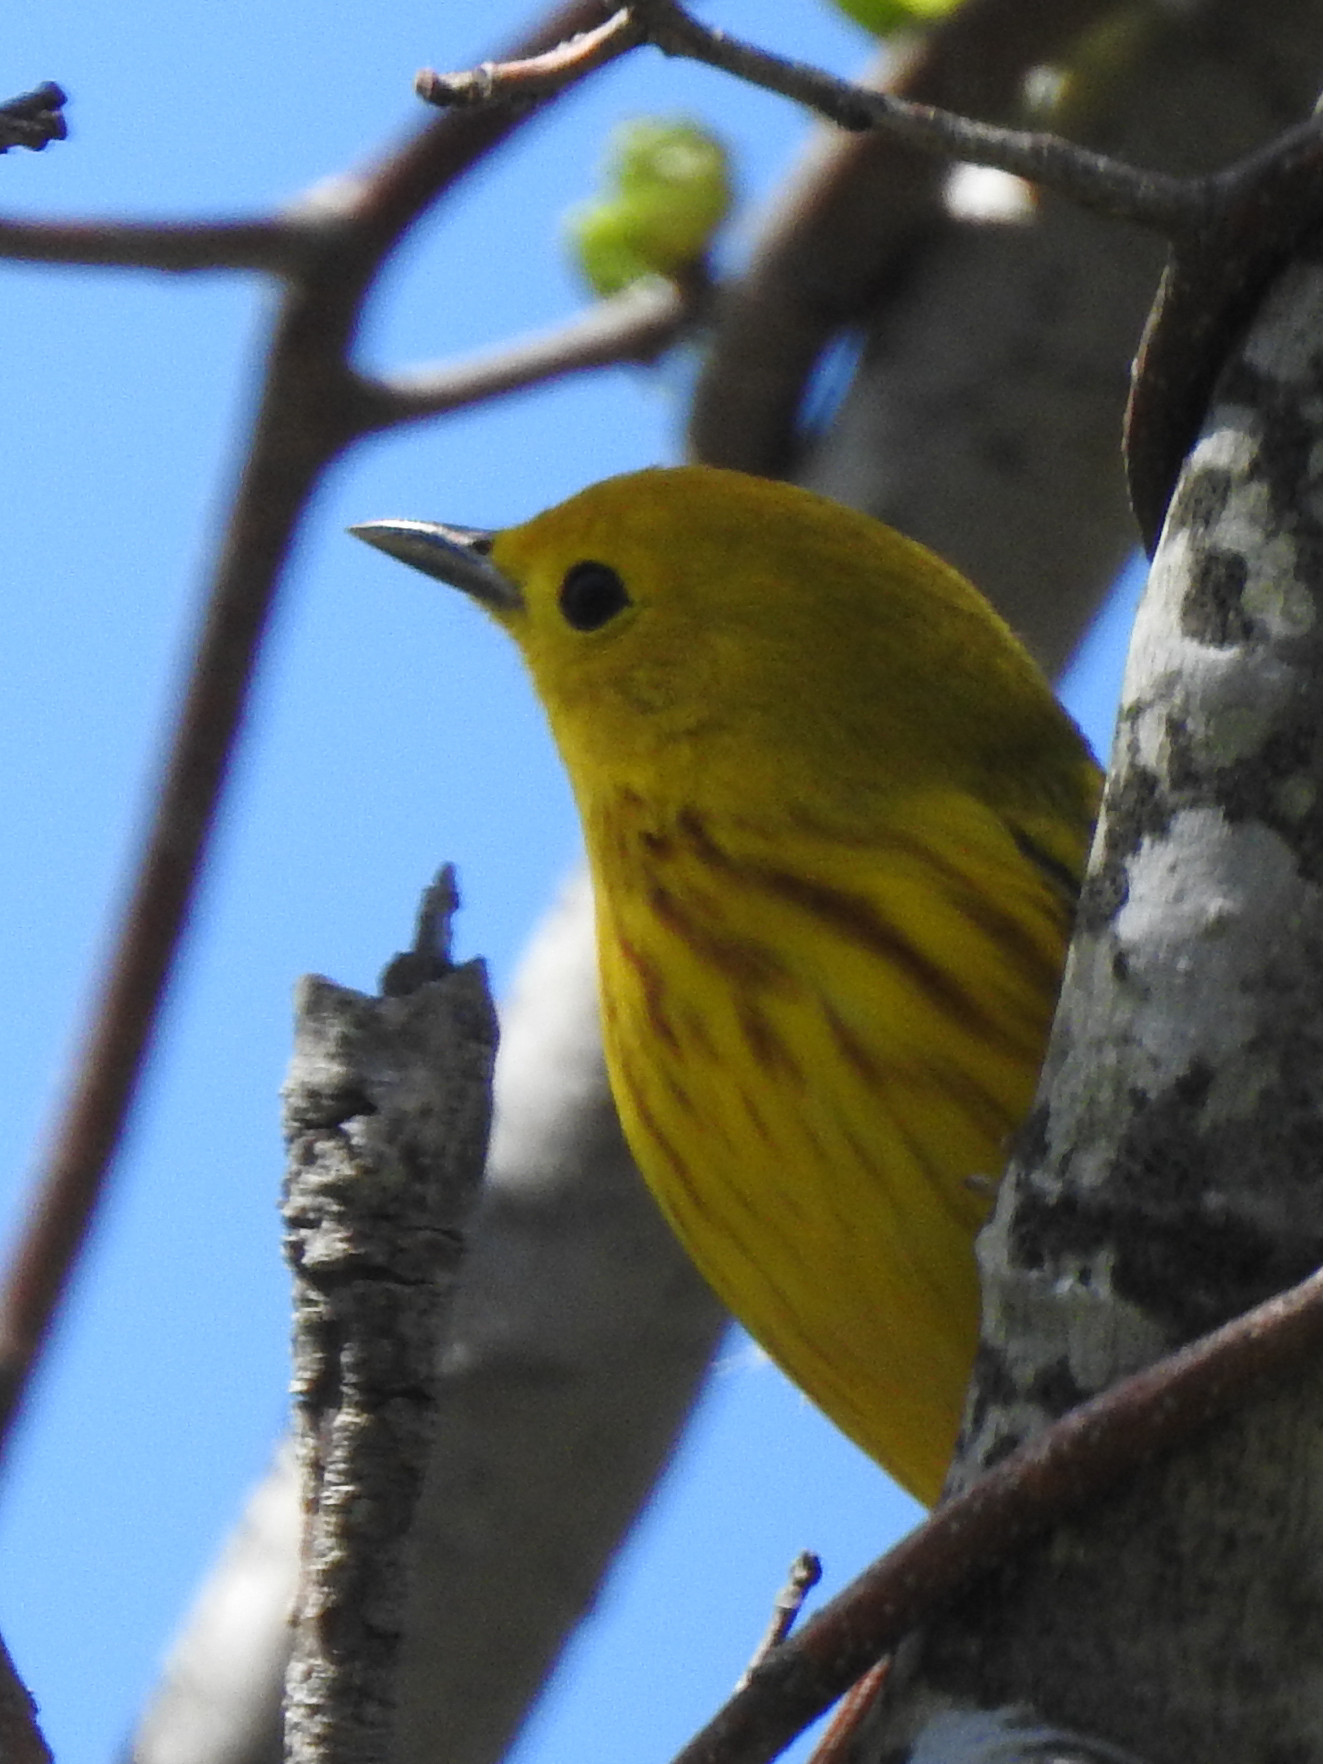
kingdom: Animalia
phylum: Chordata
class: Aves
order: Passeriformes
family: Parulidae
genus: Setophaga
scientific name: Setophaga petechia
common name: Yellow warbler
